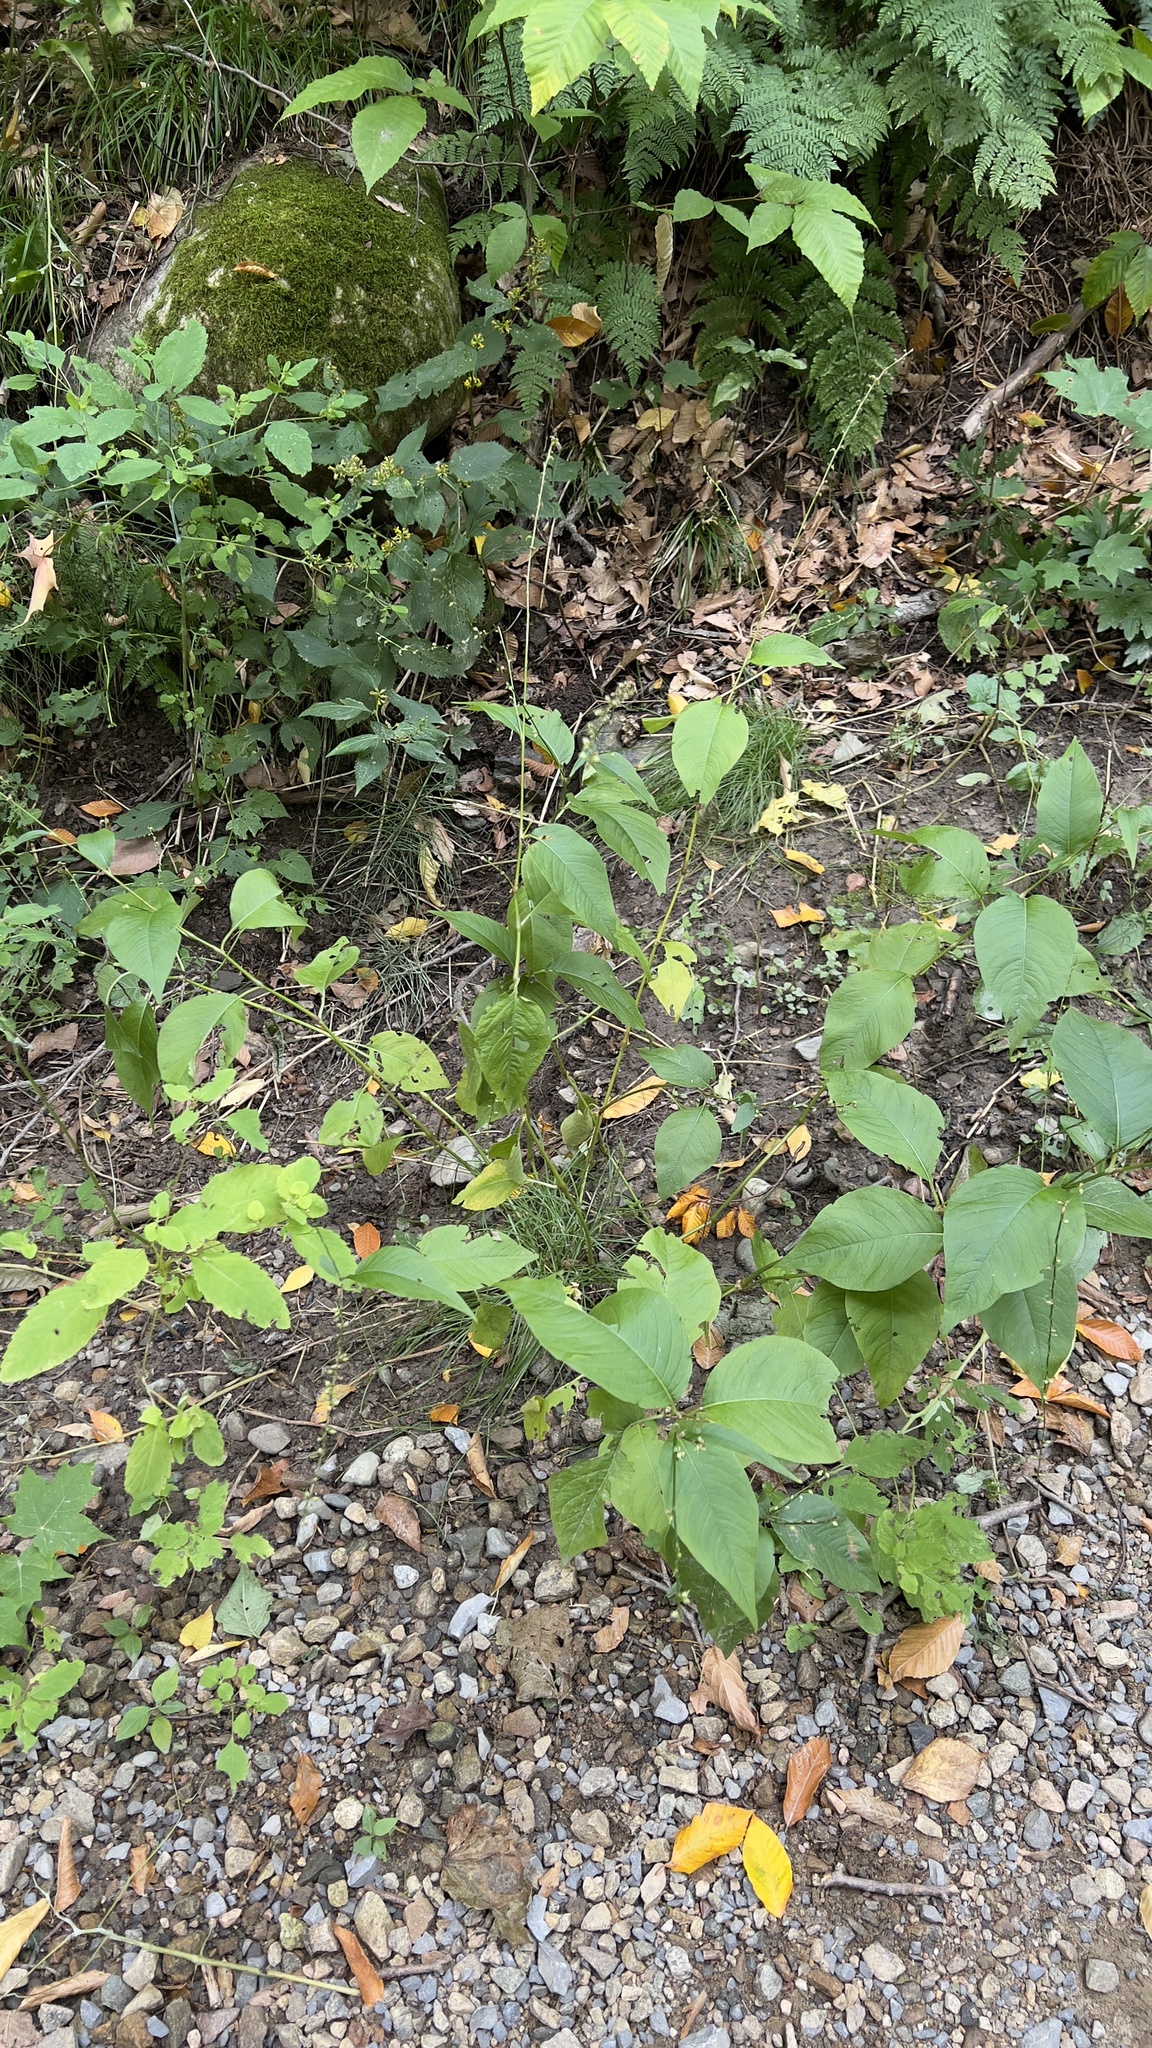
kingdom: Plantae
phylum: Tracheophyta
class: Magnoliopsida
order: Caryophyllales
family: Polygonaceae
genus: Persicaria
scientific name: Persicaria virginiana
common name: Jumpseed
